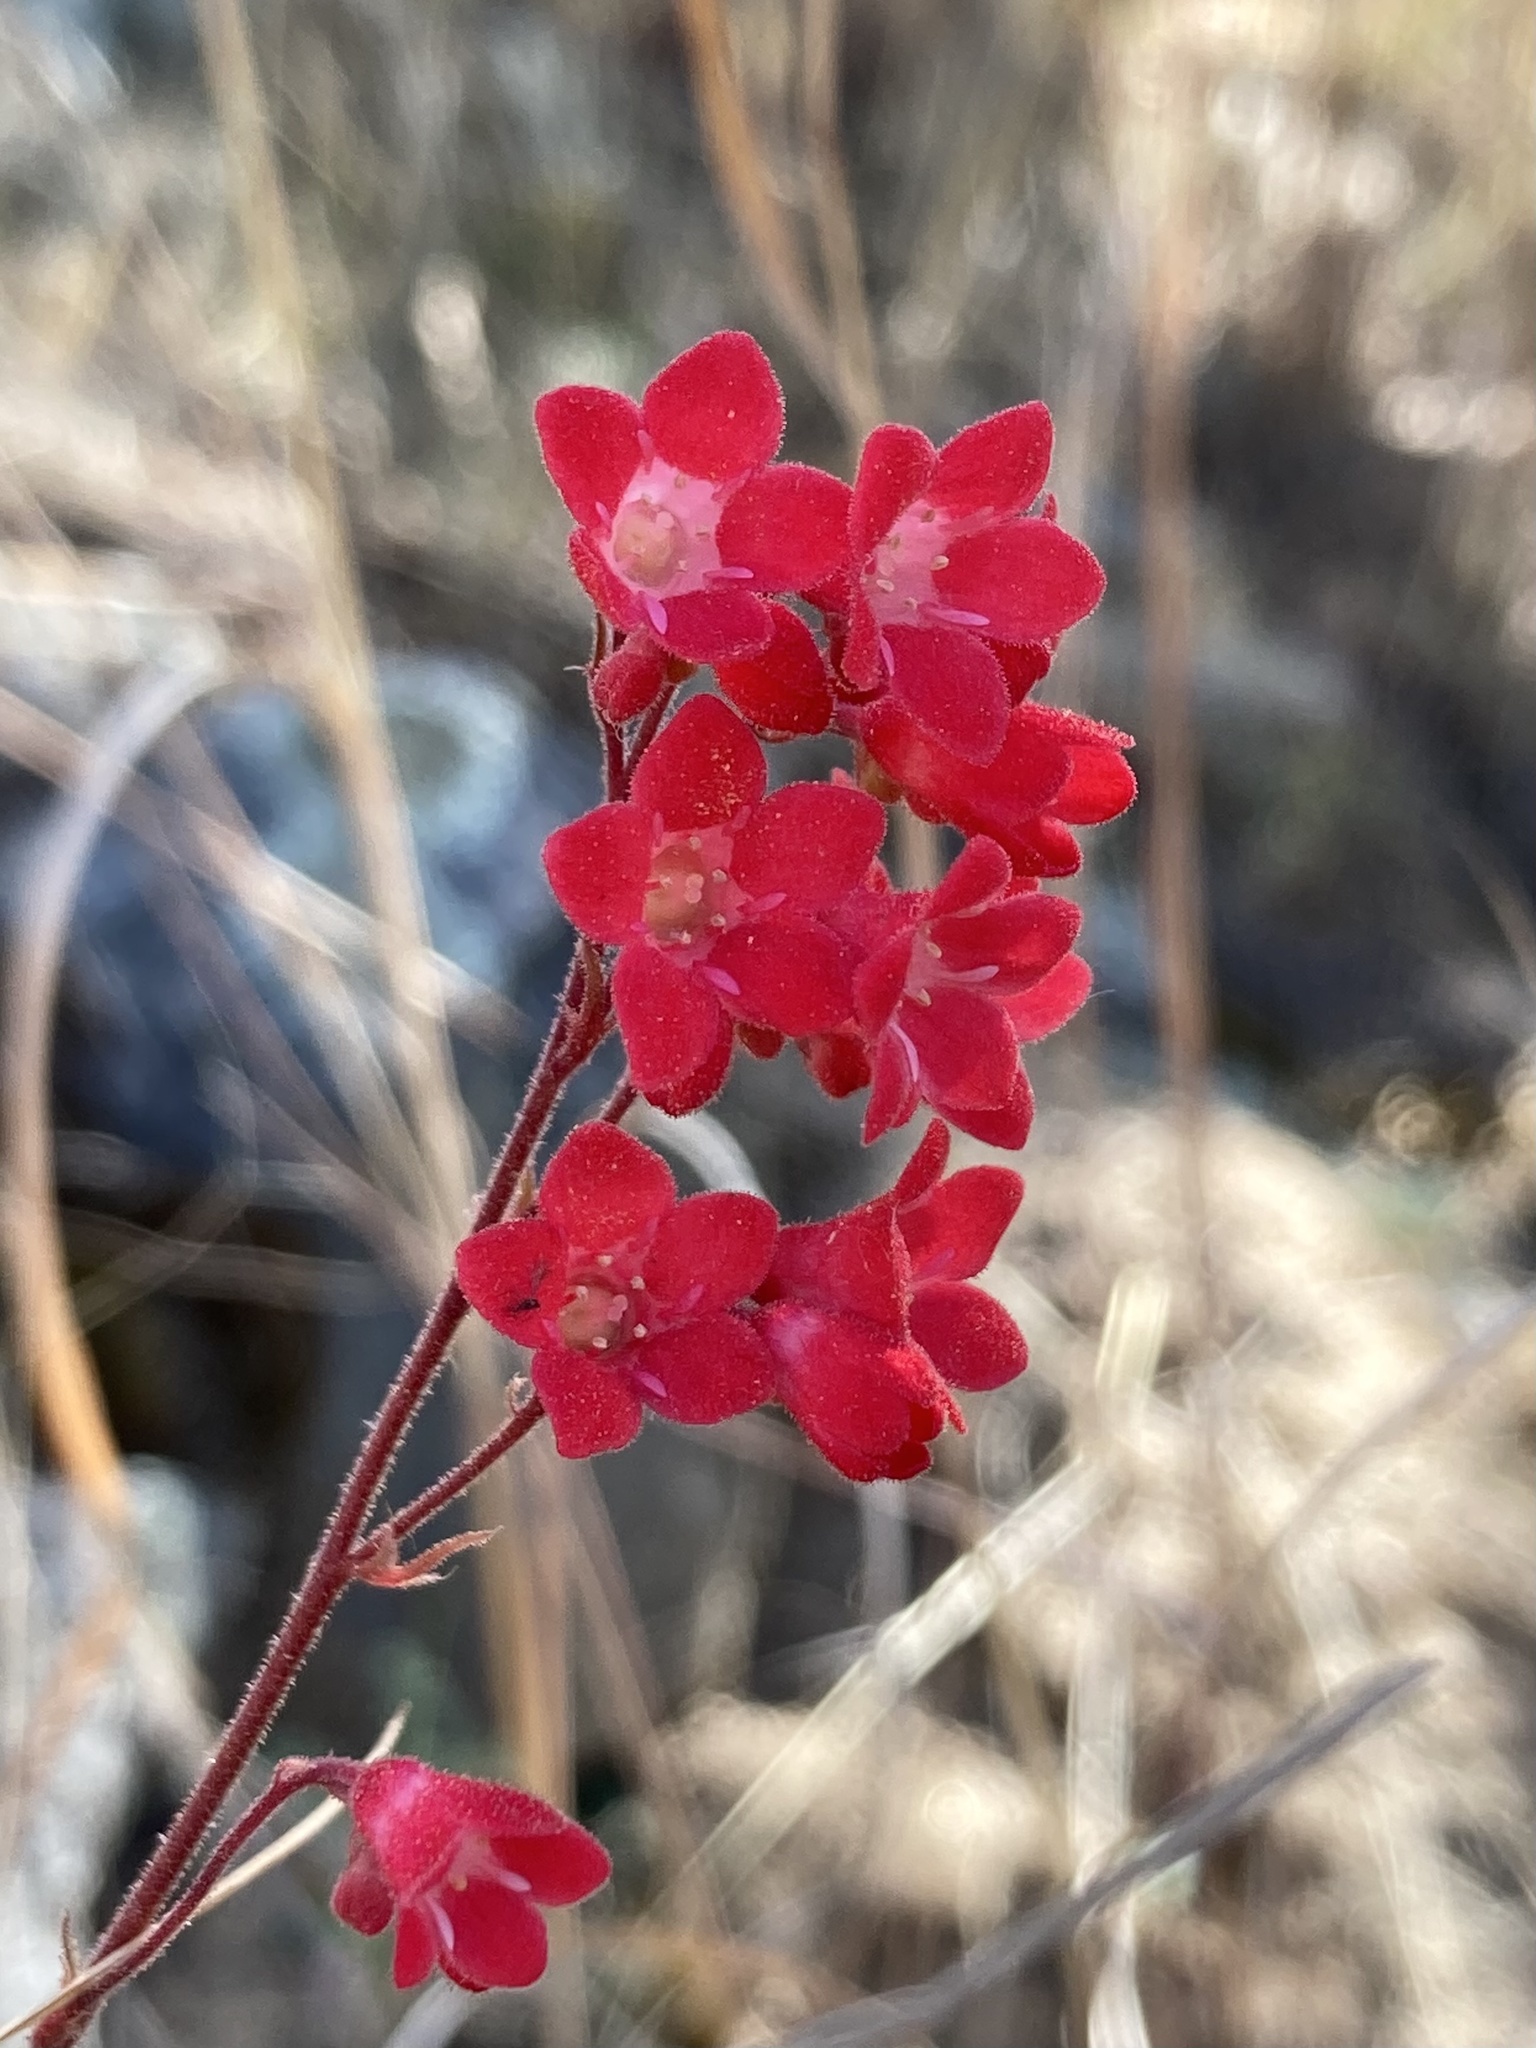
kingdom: Plantae
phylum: Tracheophyta
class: Magnoliopsida
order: Saxifragales
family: Saxifragaceae
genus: Heuchera
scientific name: Heuchera sanguinea
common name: Coralbells
